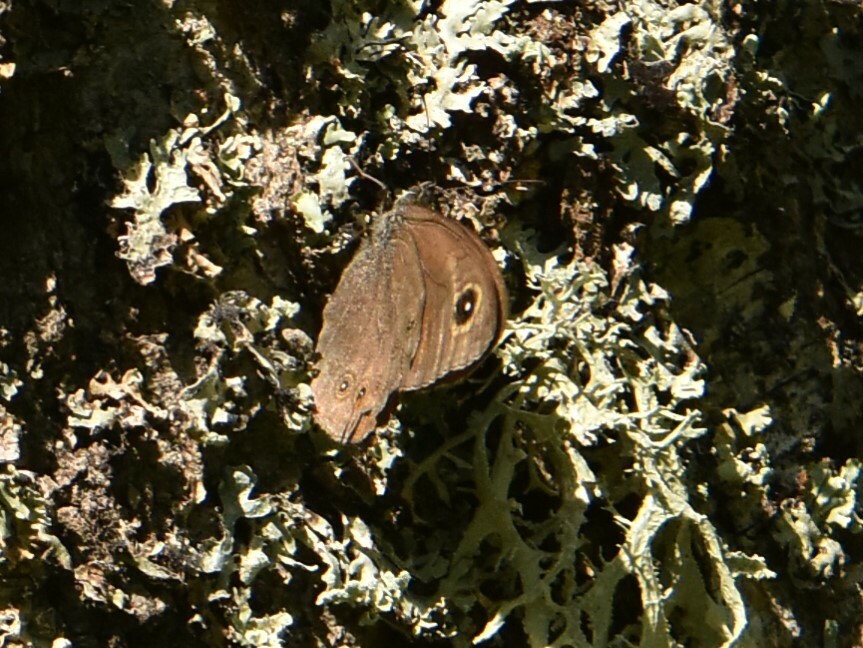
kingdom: Animalia
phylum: Arthropoda
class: Insecta
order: Lepidoptera
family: Nymphalidae
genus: Pararge
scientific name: Pararge Lasiommata maera
